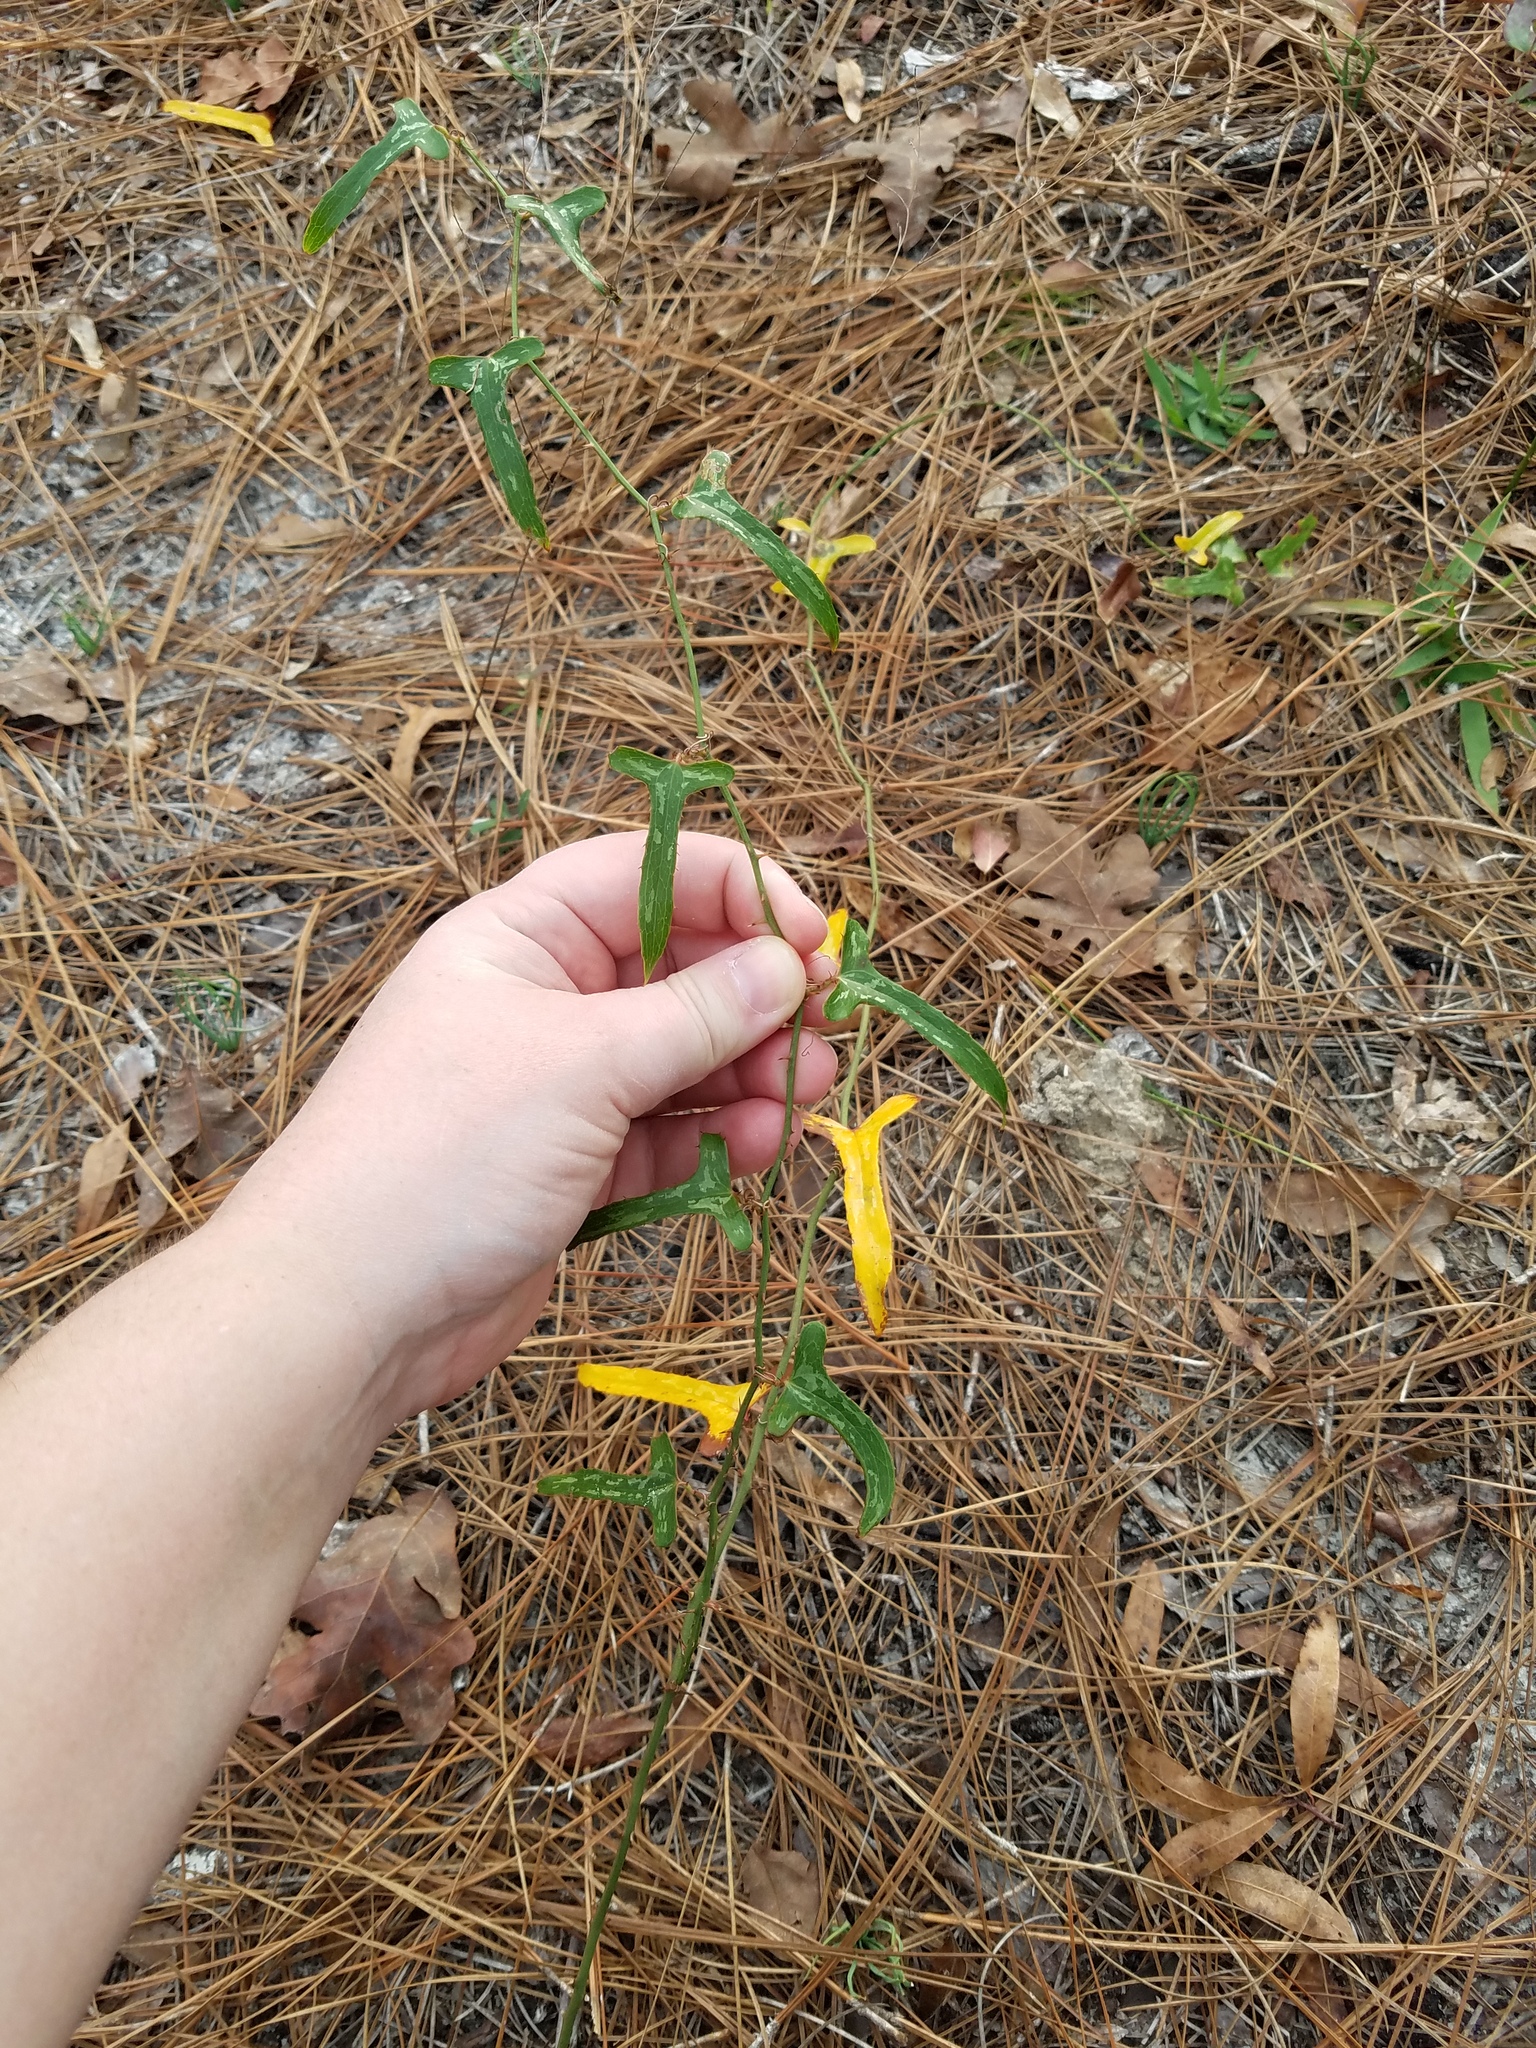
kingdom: Plantae
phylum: Tracheophyta
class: Liliopsida
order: Liliales
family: Smilacaceae
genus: Smilax
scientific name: Smilax bona-nox
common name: Catbrier
